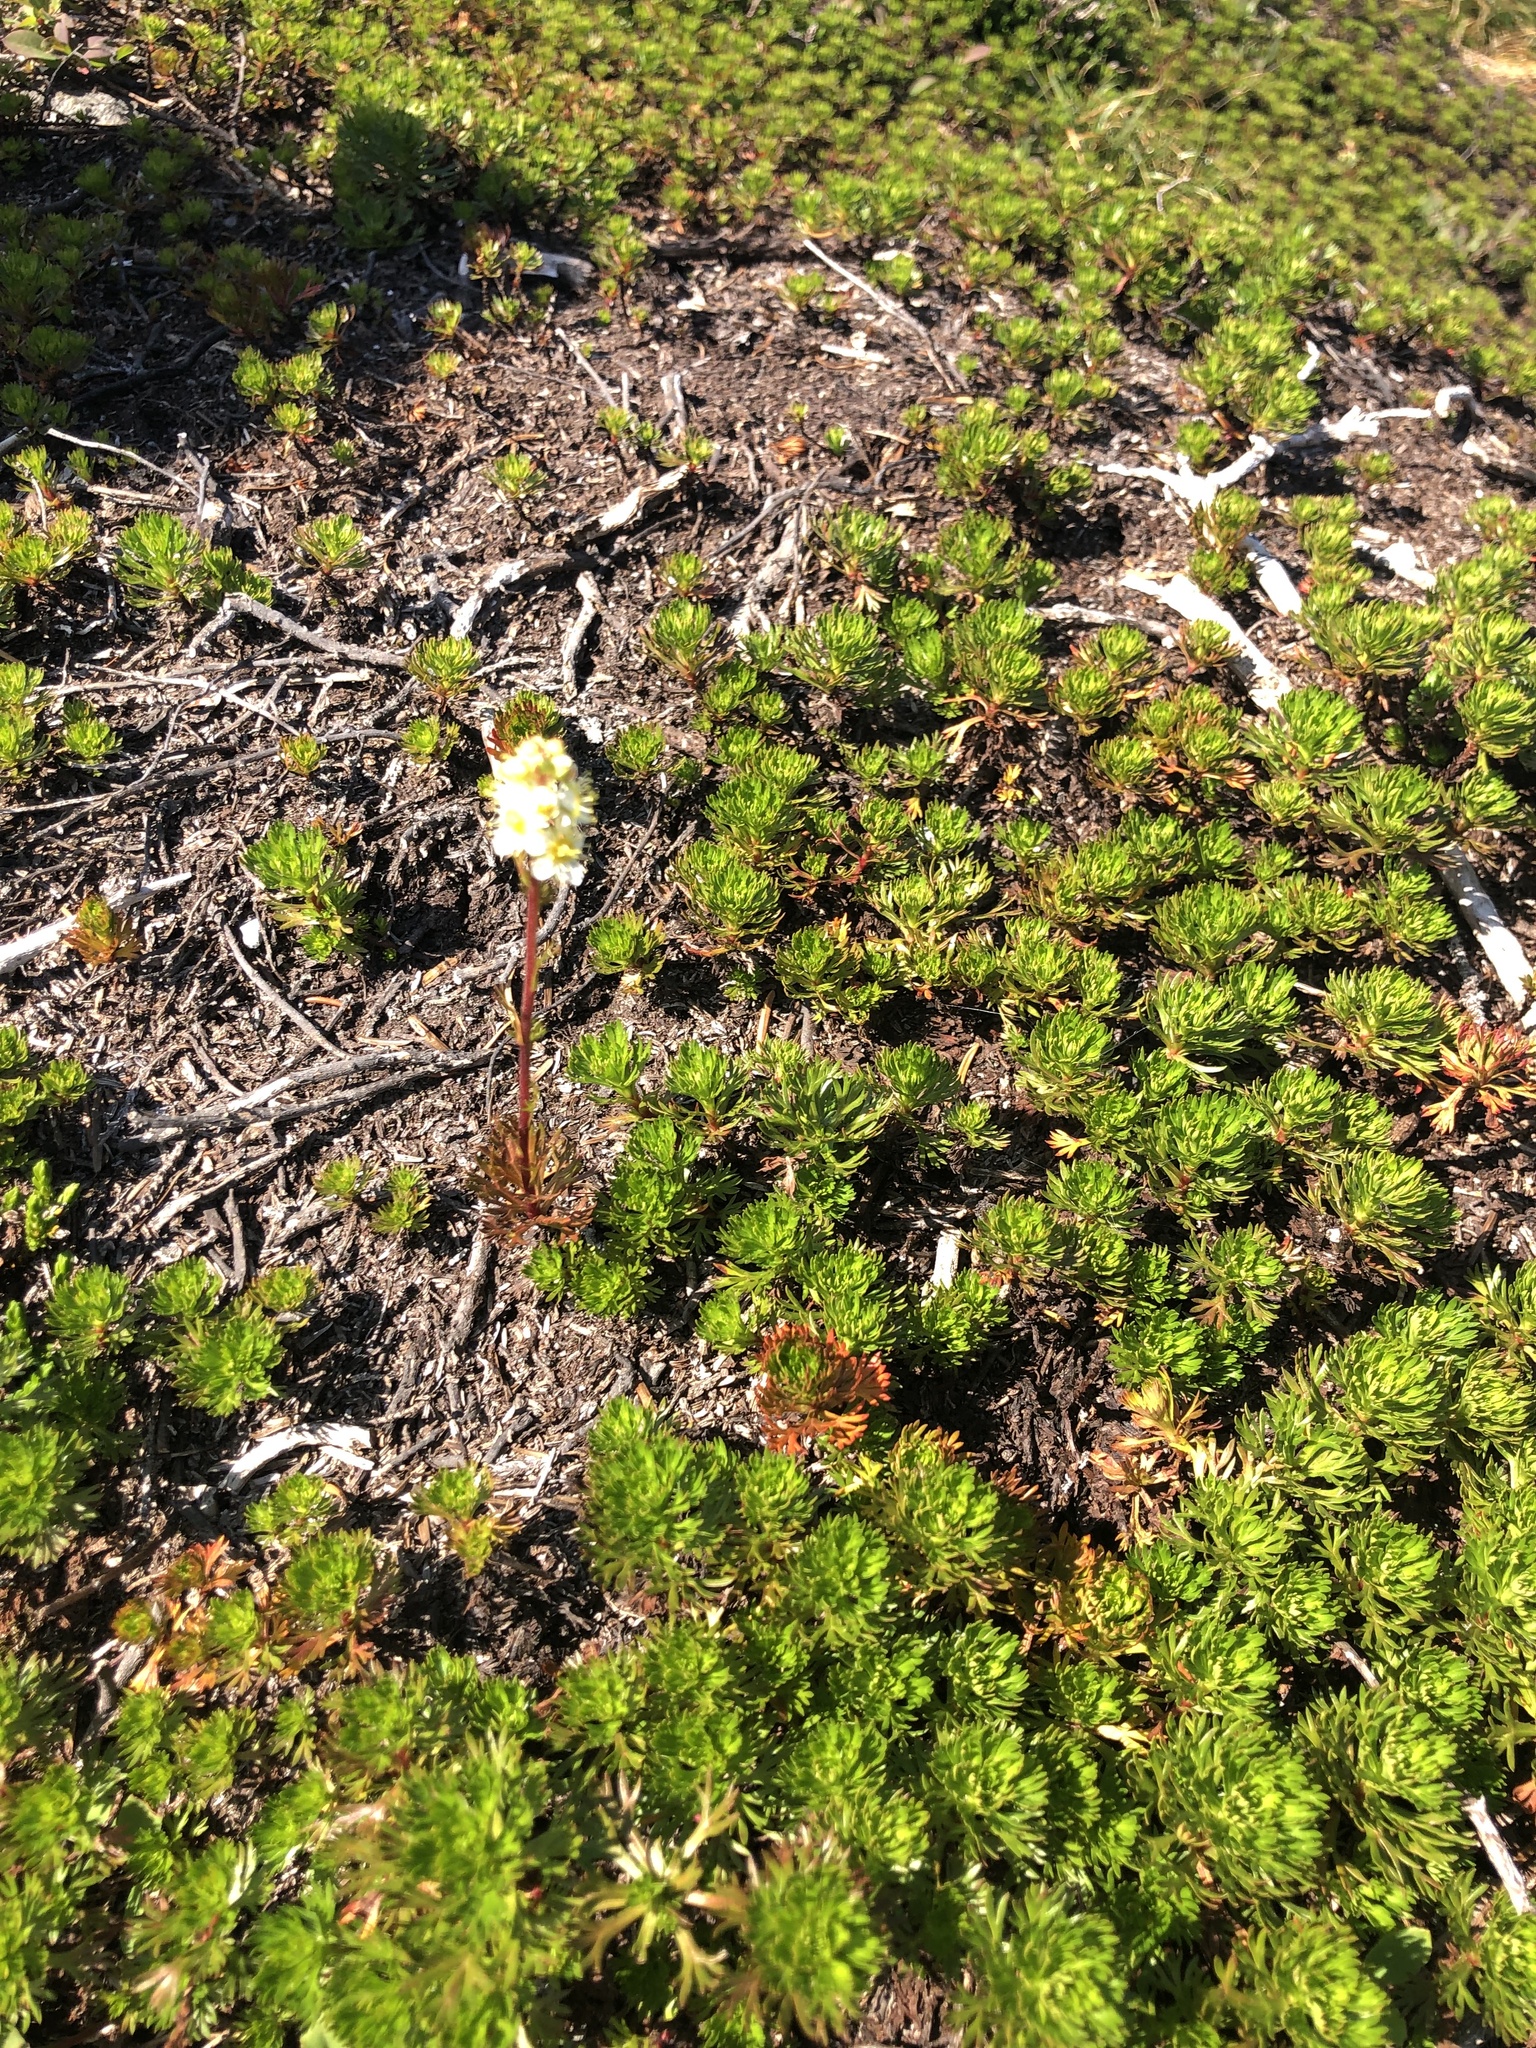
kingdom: Plantae
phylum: Tracheophyta
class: Magnoliopsida
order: Rosales
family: Rosaceae
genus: Luetkea
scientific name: Luetkea pectinata
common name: Partridgefoot
